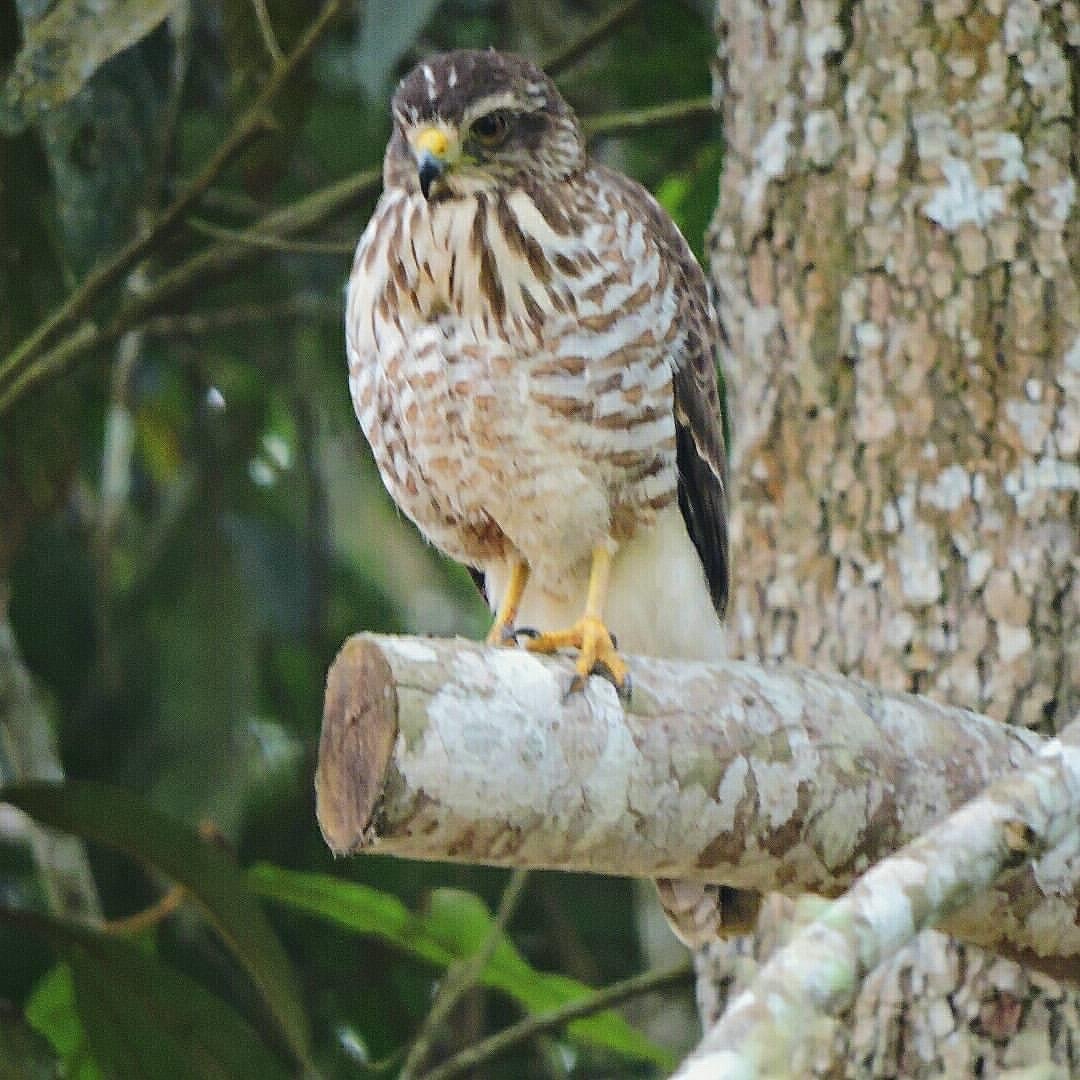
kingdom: Animalia
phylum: Chordata
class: Aves
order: Accipitriformes
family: Accipitridae
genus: Rupornis
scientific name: Rupornis magnirostris
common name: Roadside hawk
